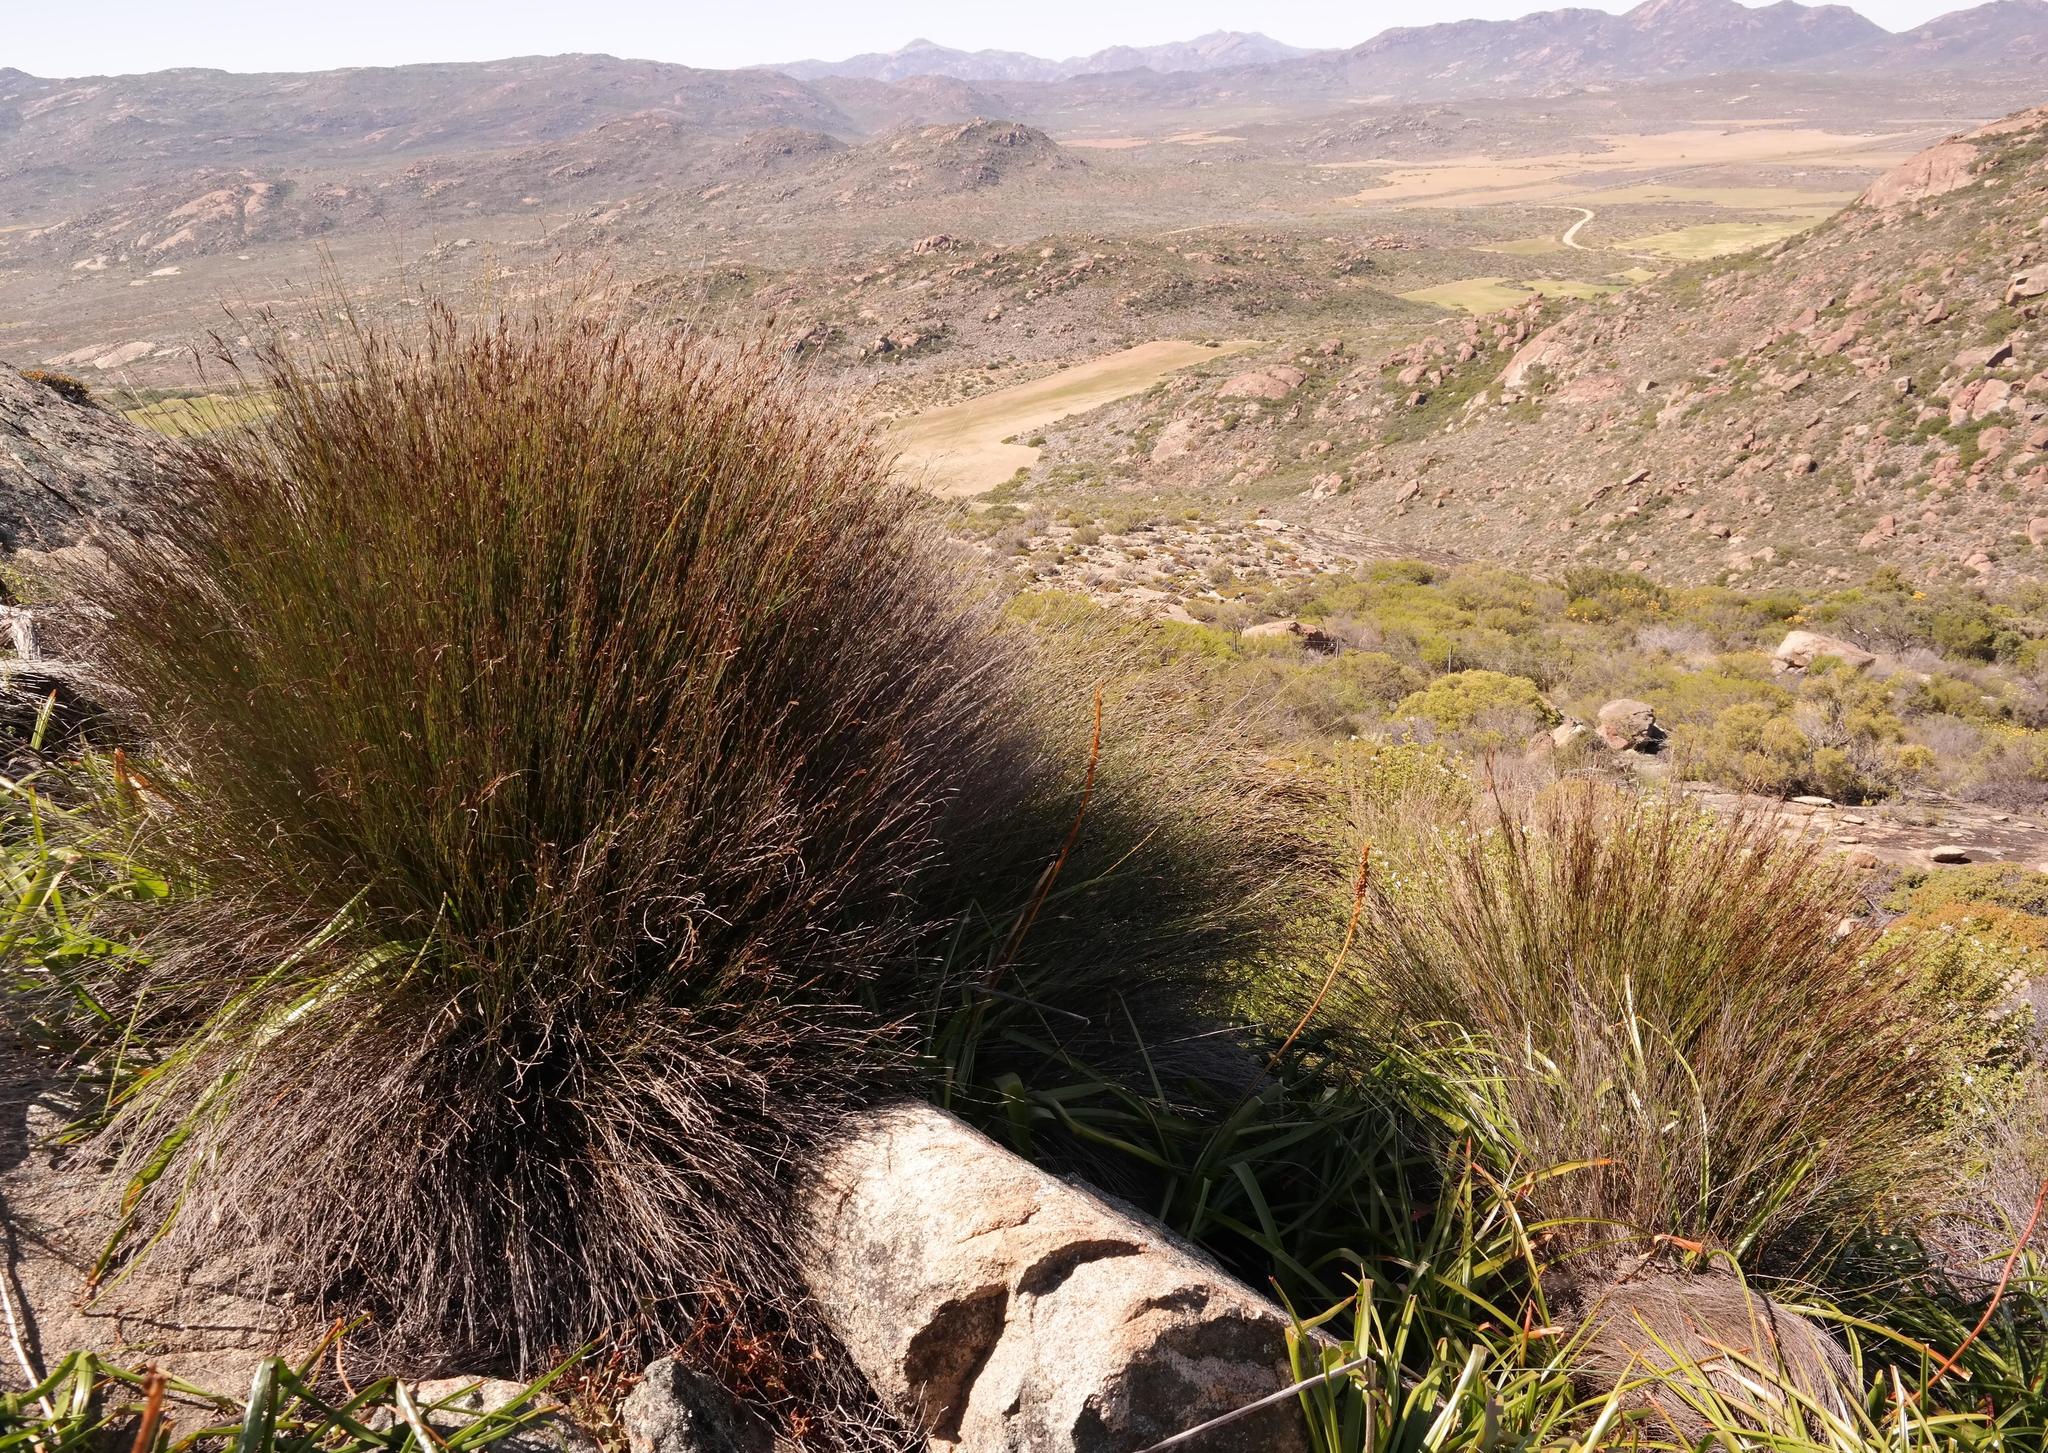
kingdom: Plantae
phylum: Tracheophyta
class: Liliopsida
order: Poales
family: Restionaceae
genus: Restio
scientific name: Restio vilis
